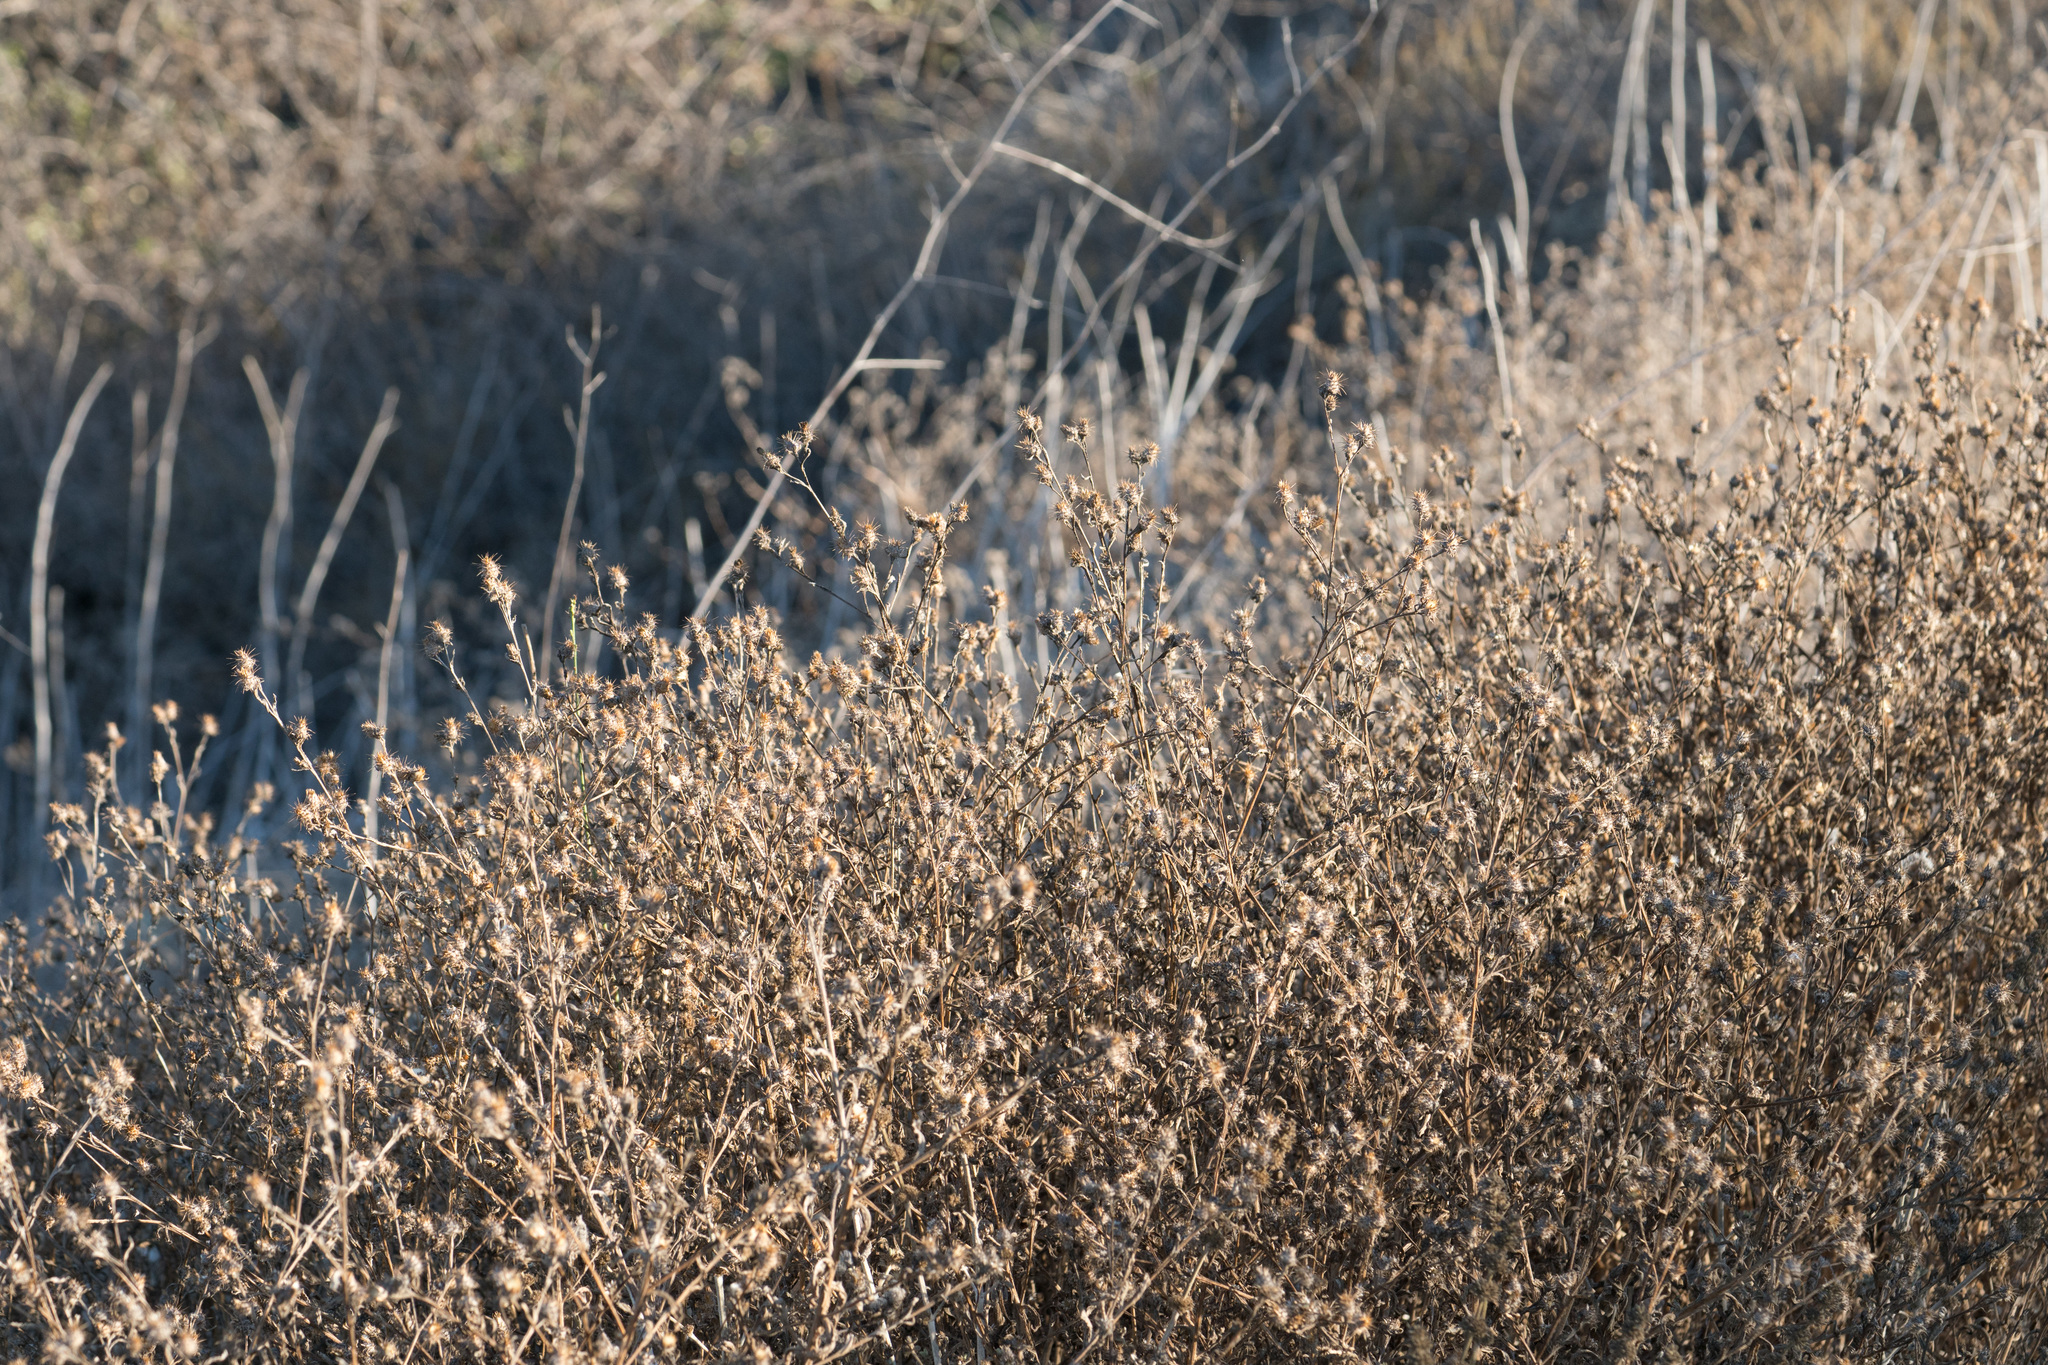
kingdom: Plantae
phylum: Tracheophyta
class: Magnoliopsida
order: Asterales
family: Asteraceae
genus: Centaurea
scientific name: Centaurea melitensis
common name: Maltese star-thistle
